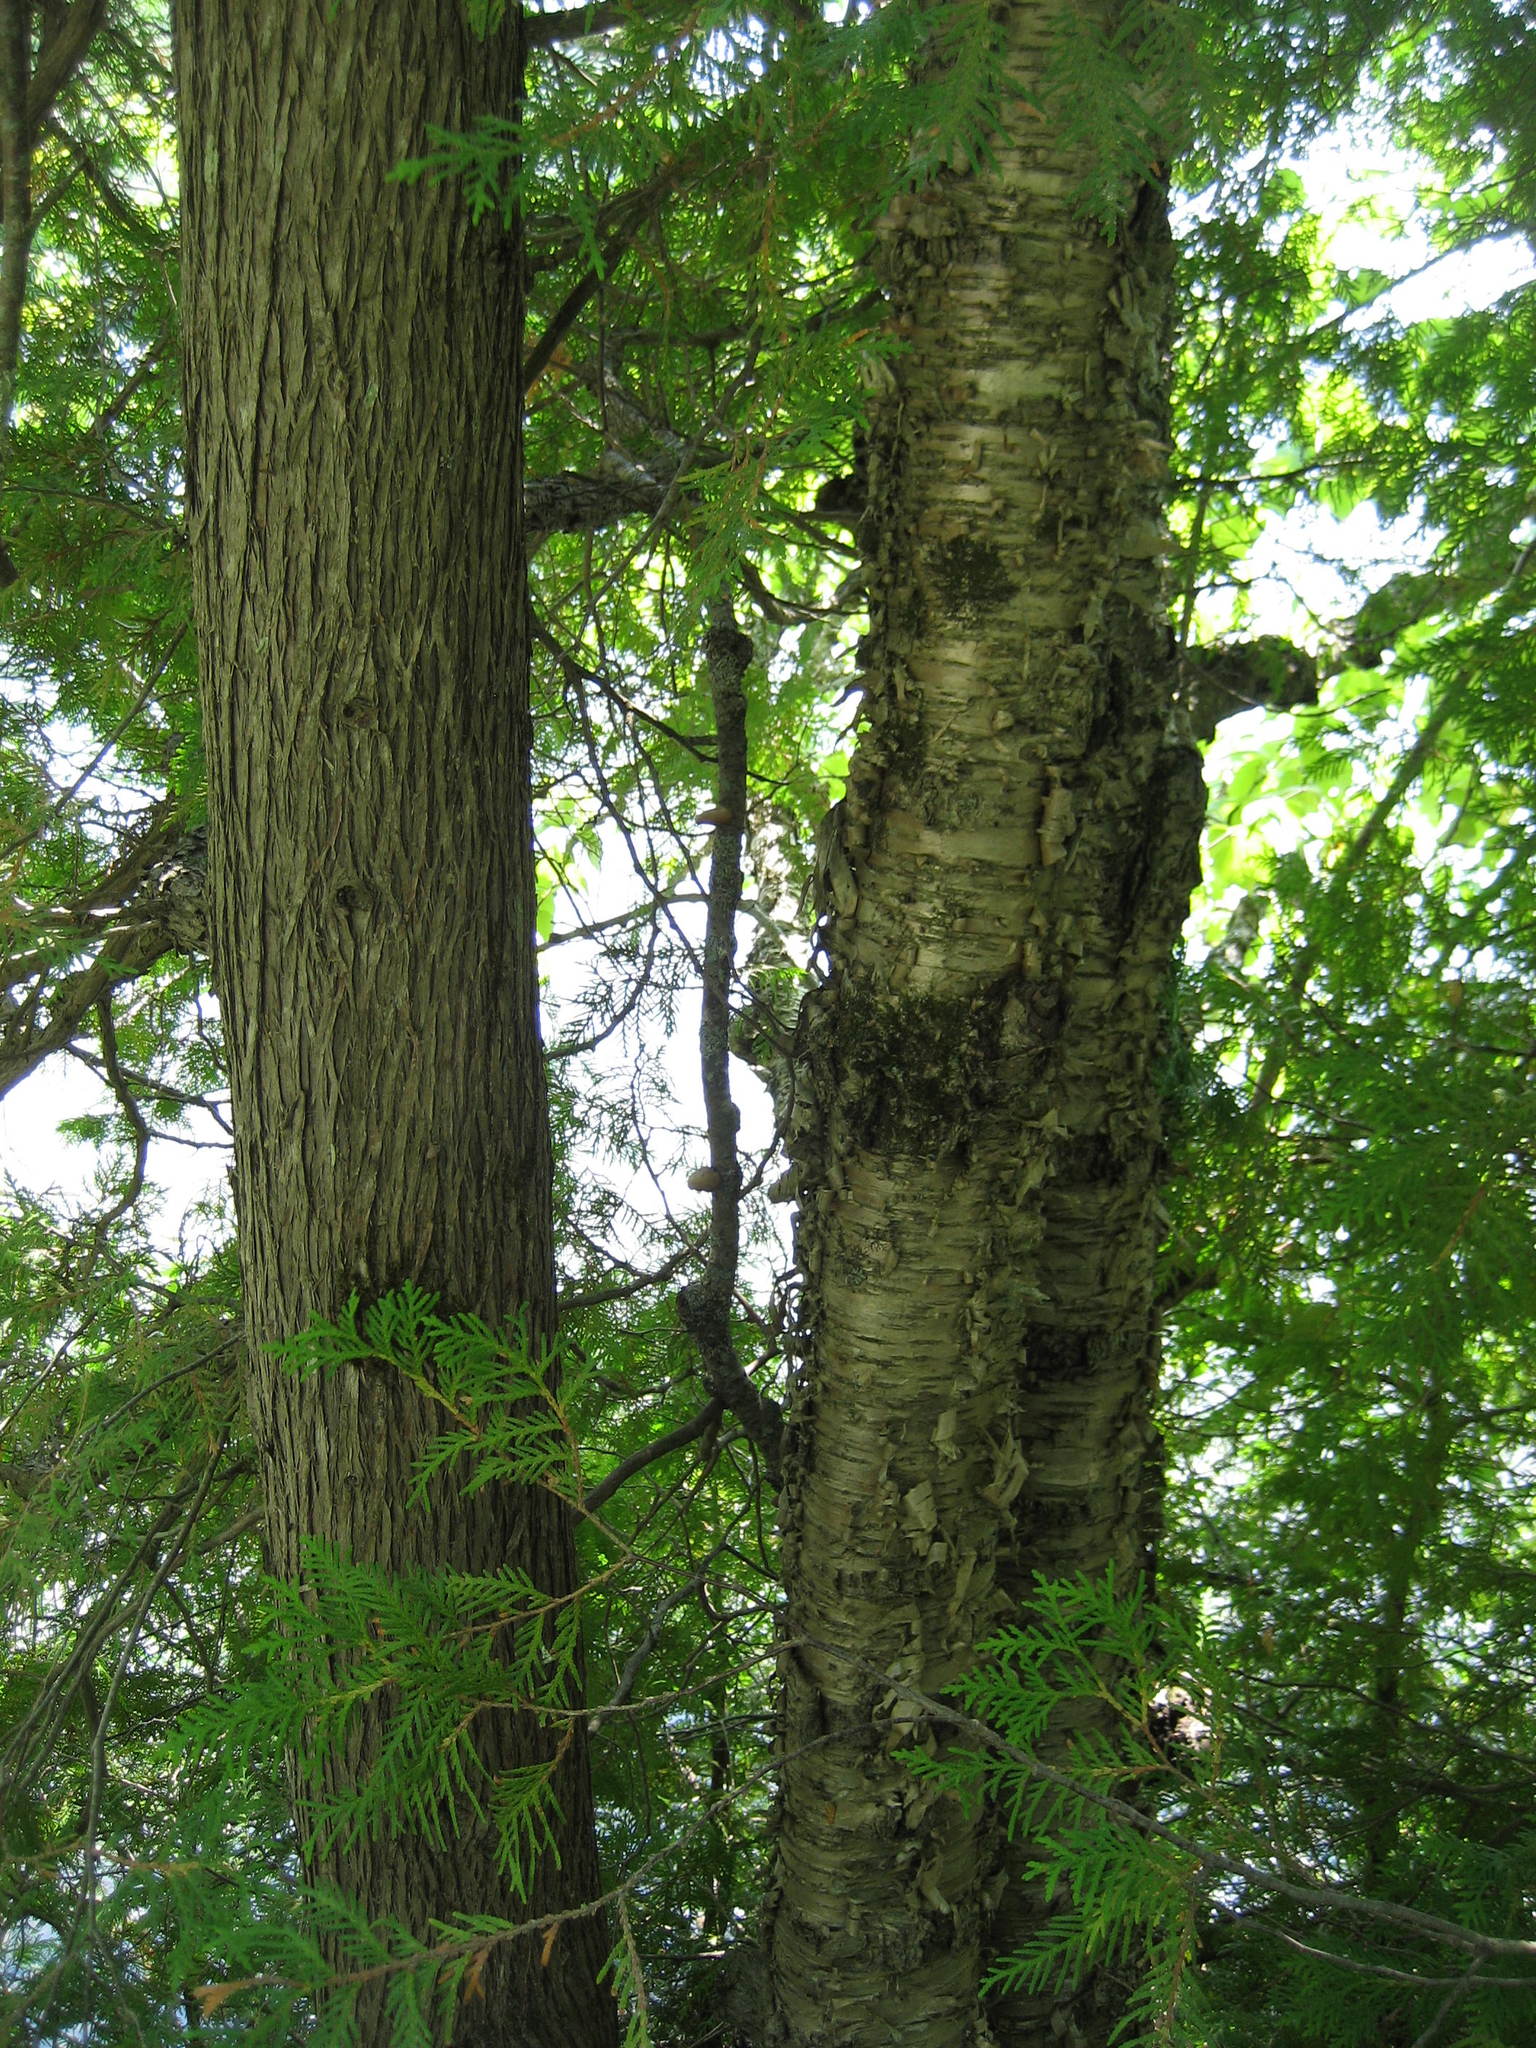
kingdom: Plantae
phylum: Tracheophyta
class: Pinopsida
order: Pinales
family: Cupressaceae
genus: Thuja
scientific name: Thuja occidentalis
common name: Northern white-cedar
